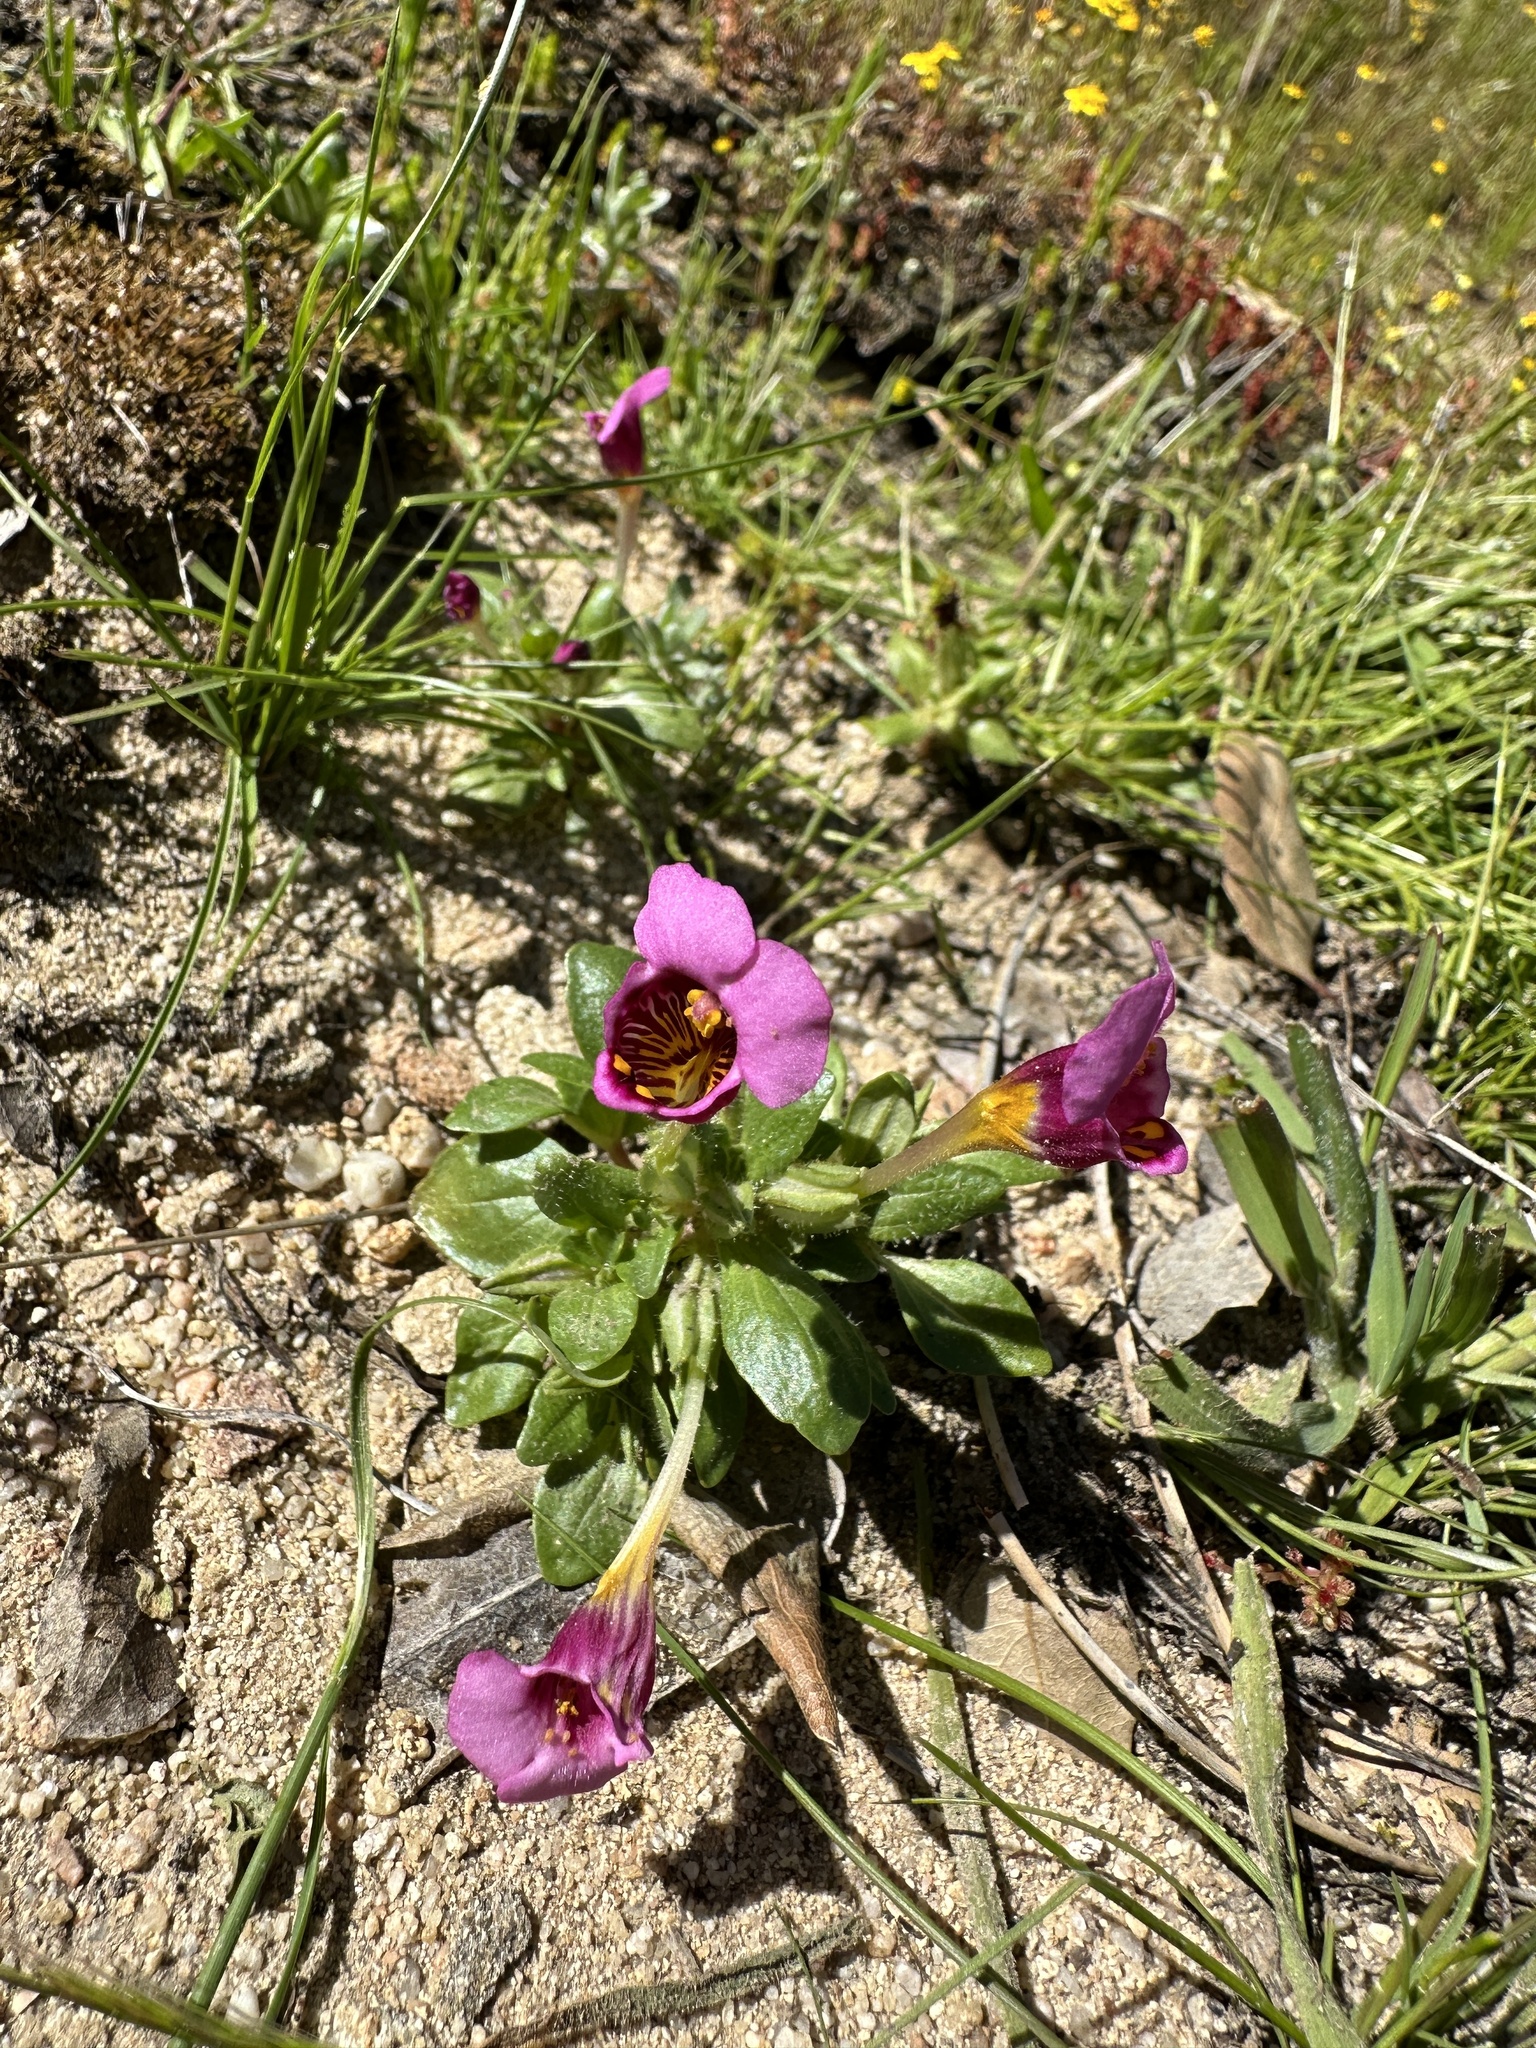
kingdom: Plantae
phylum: Tracheophyta
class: Magnoliopsida
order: Lamiales
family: Phrymaceae
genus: Diplacus
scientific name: Diplacus douglasii
